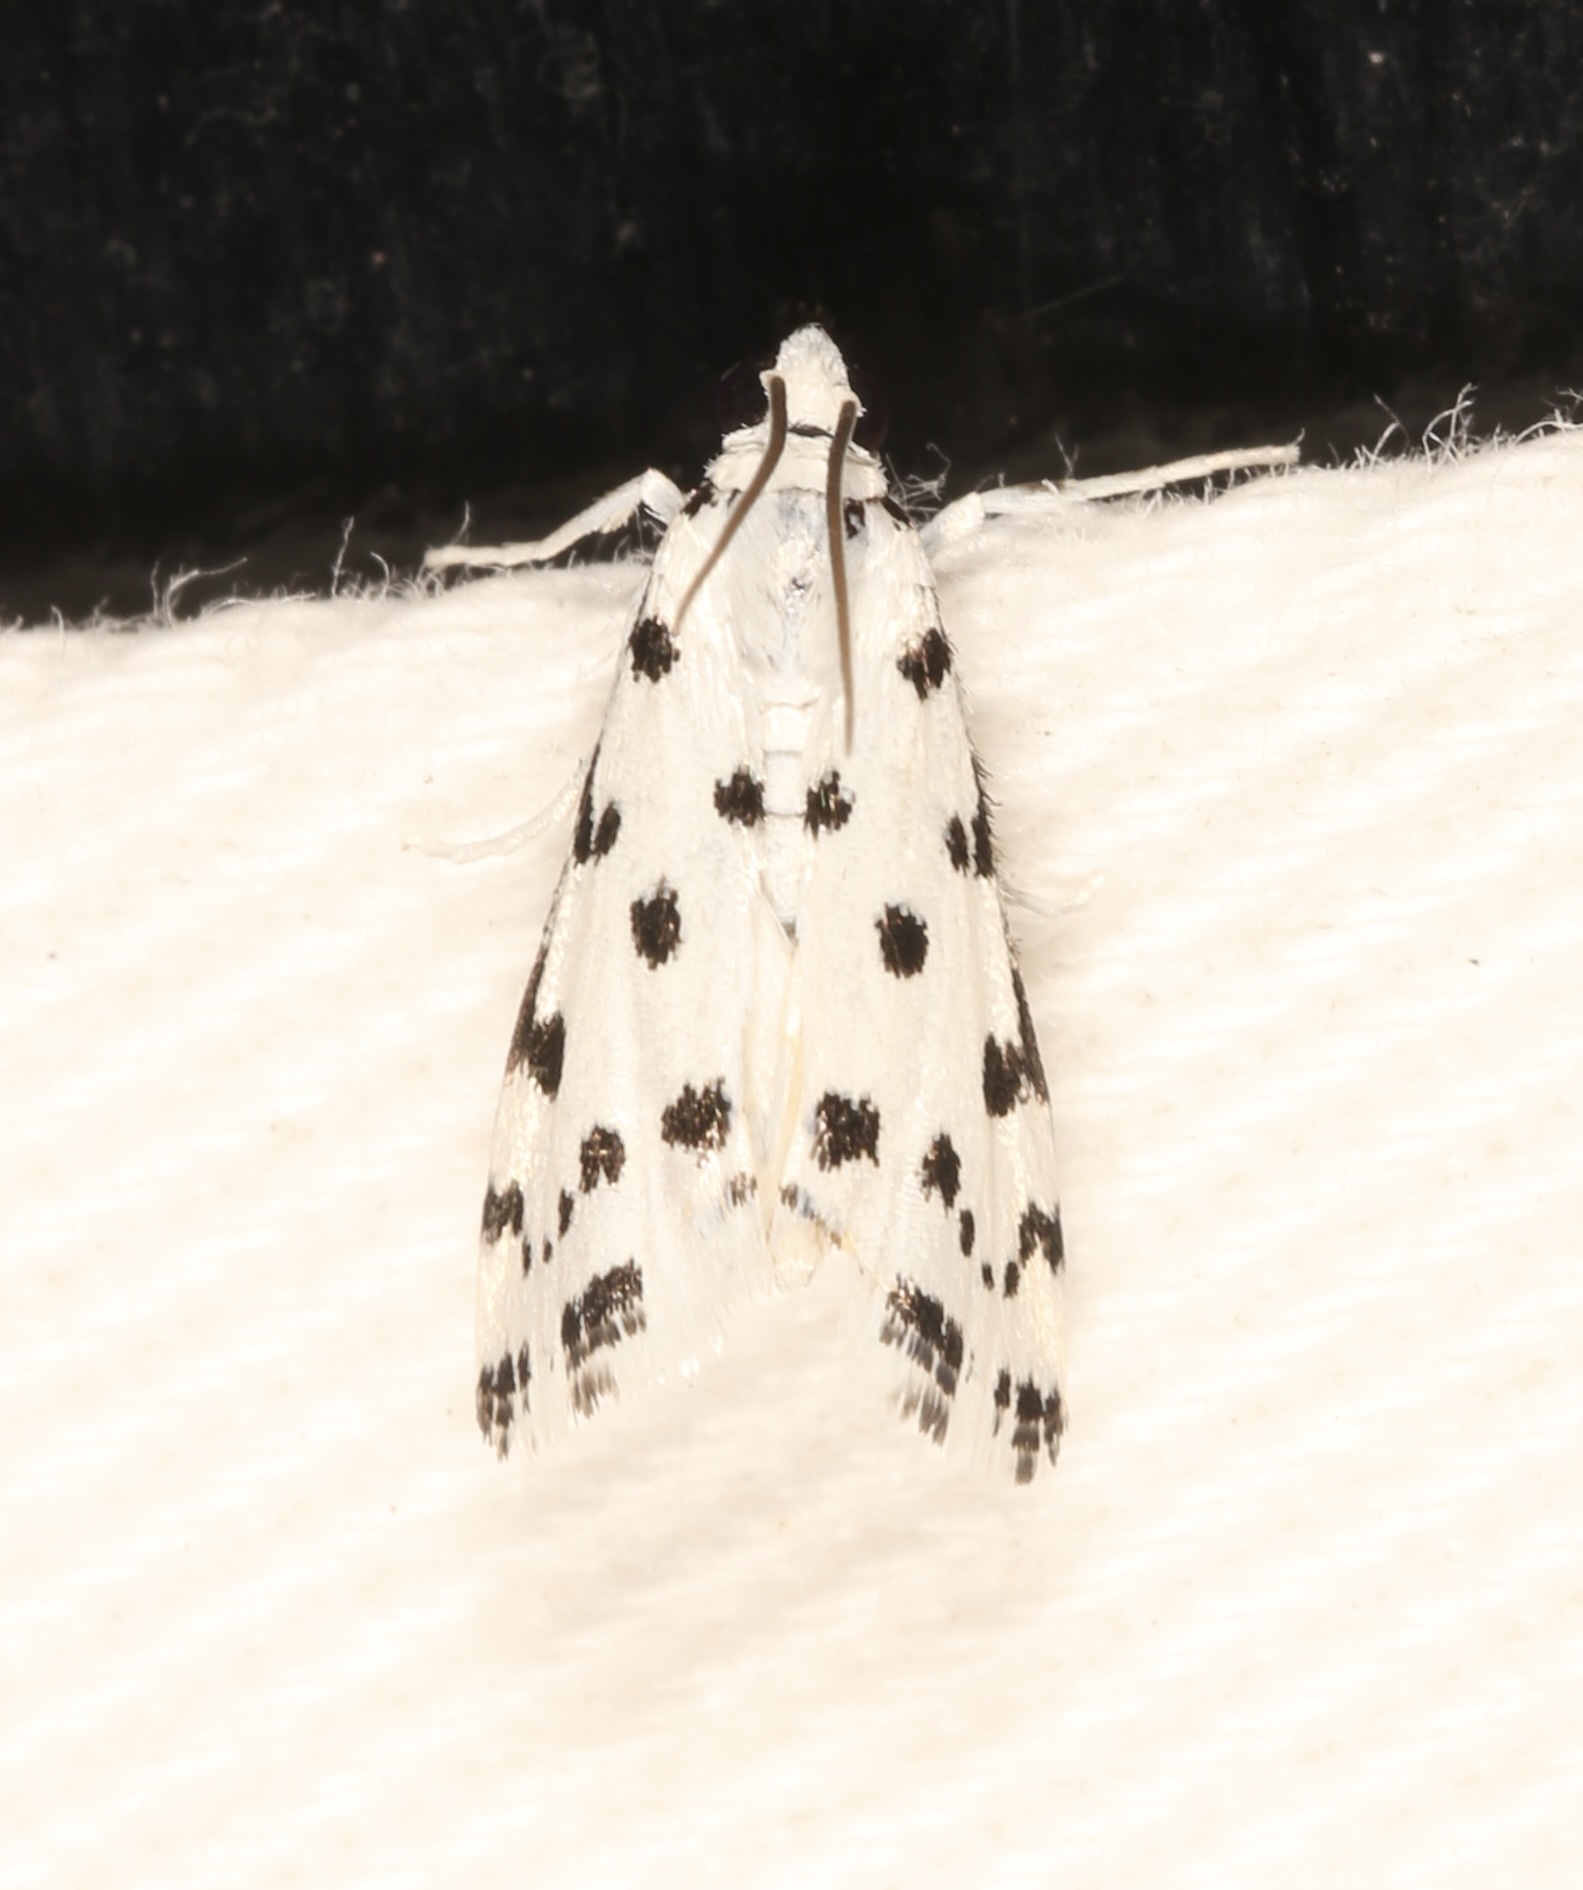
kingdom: Animalia
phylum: Arthropoda
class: Insecta
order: Lepidoptera
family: Crambidae
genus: Eustixia
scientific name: Eustixia pupula
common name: American cabbage pearl
